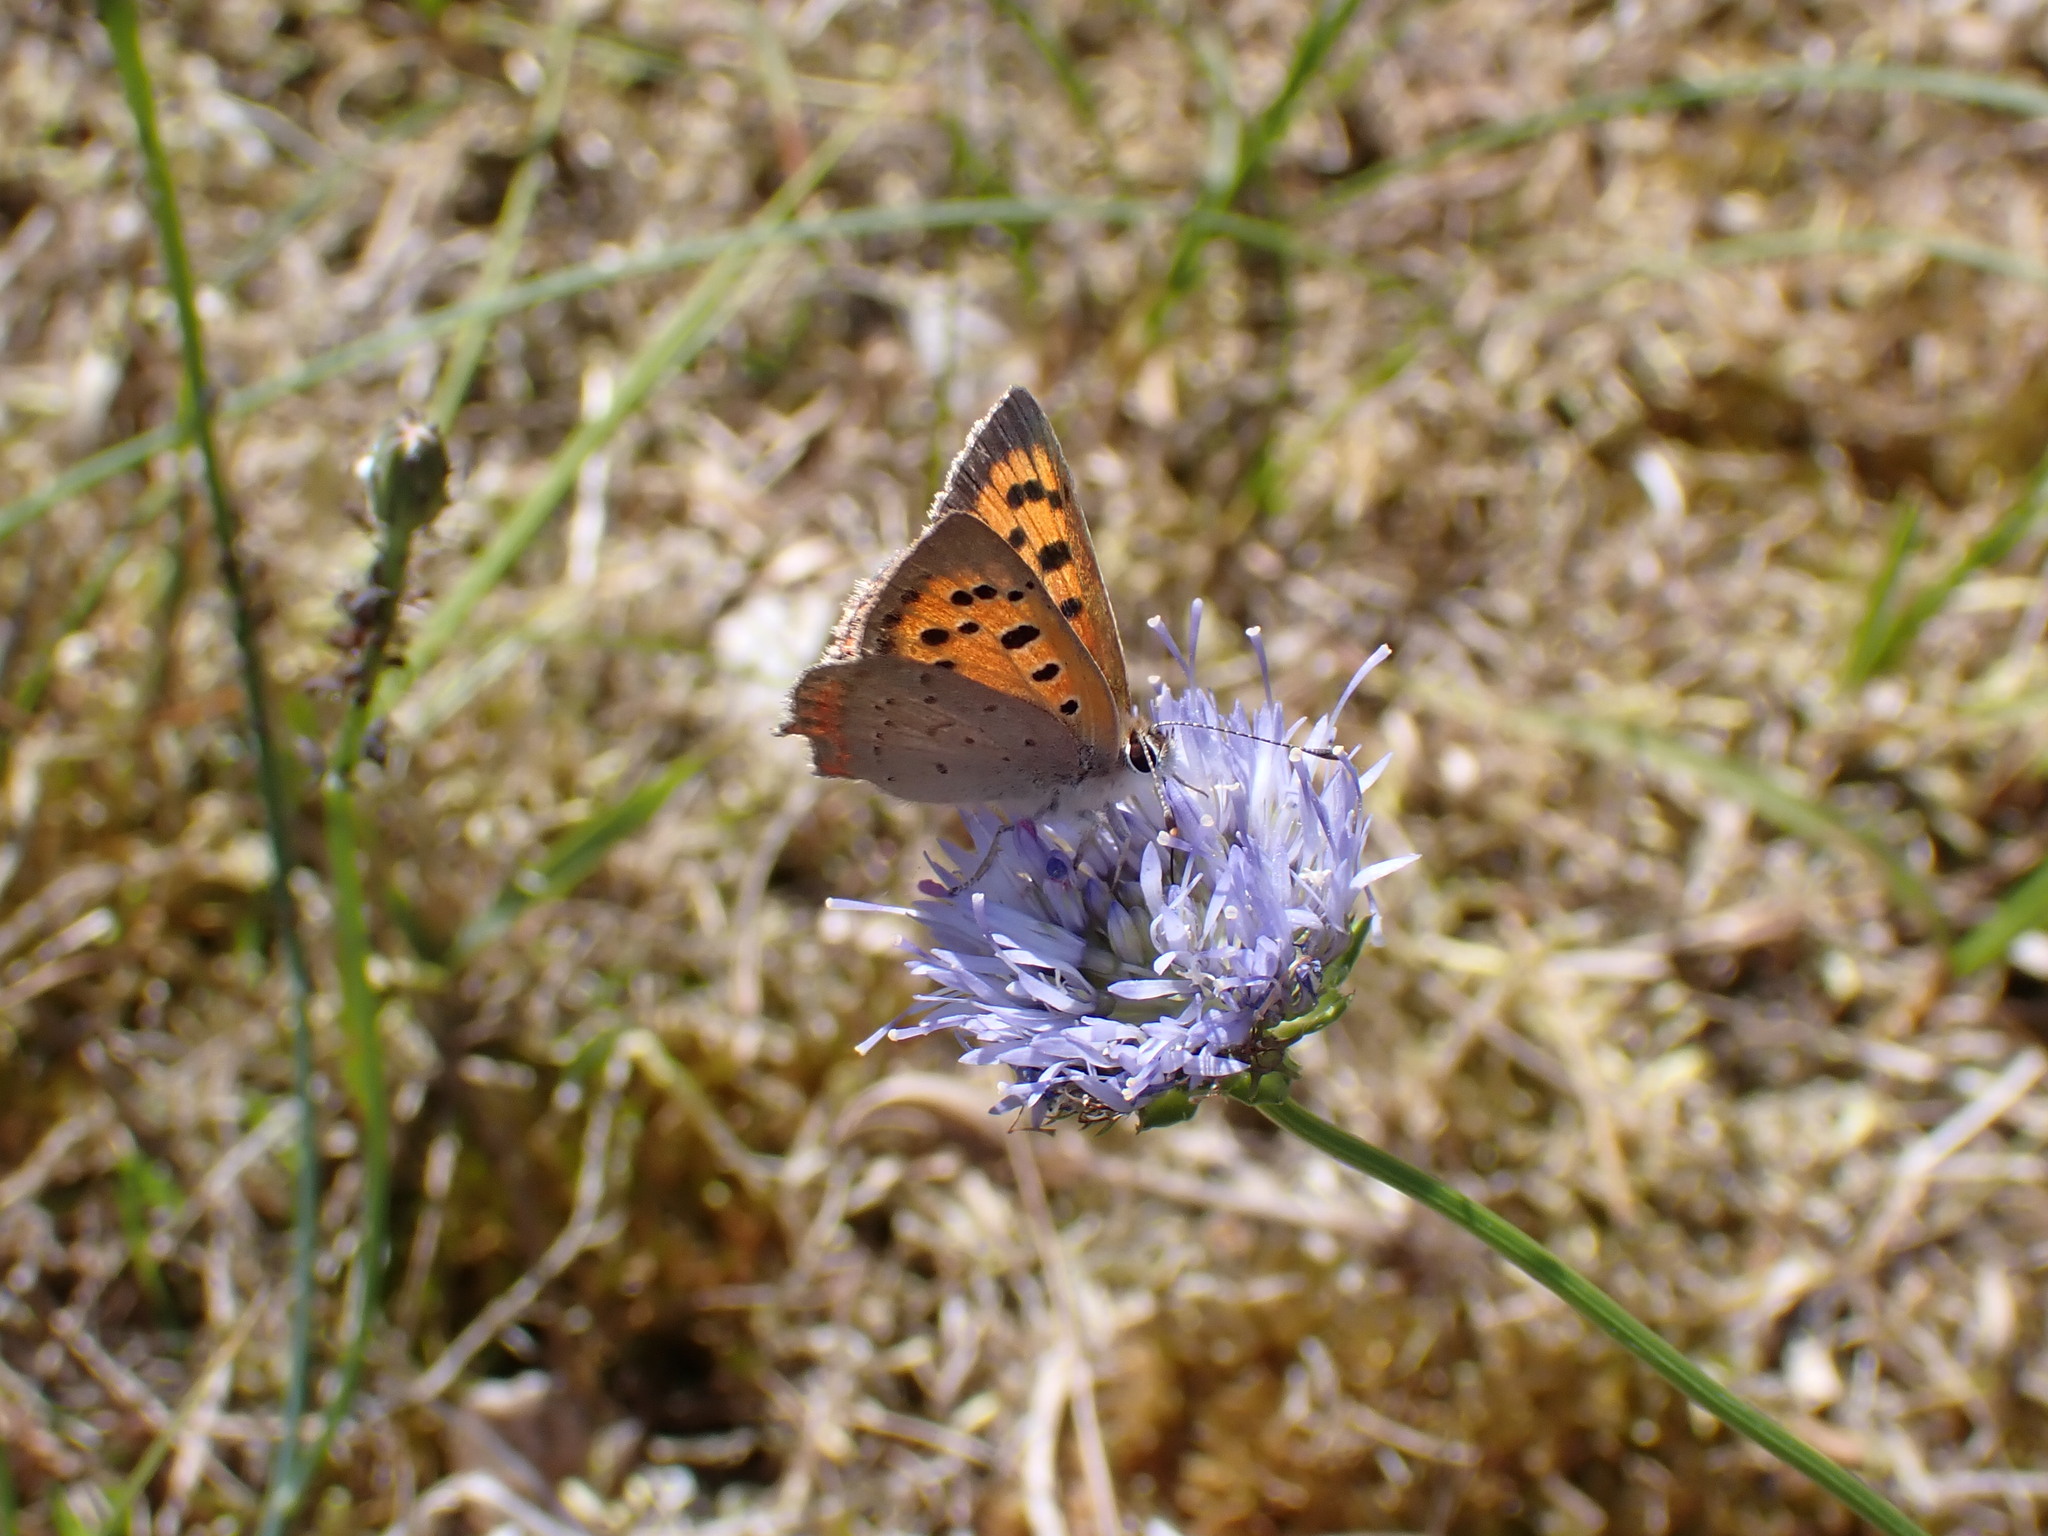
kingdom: Animalia
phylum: Arthropoda
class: Insecta
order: Lepidoptera
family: Lycaenidae
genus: Lycaena
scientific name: Lycaena phlaeas
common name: Small copper
